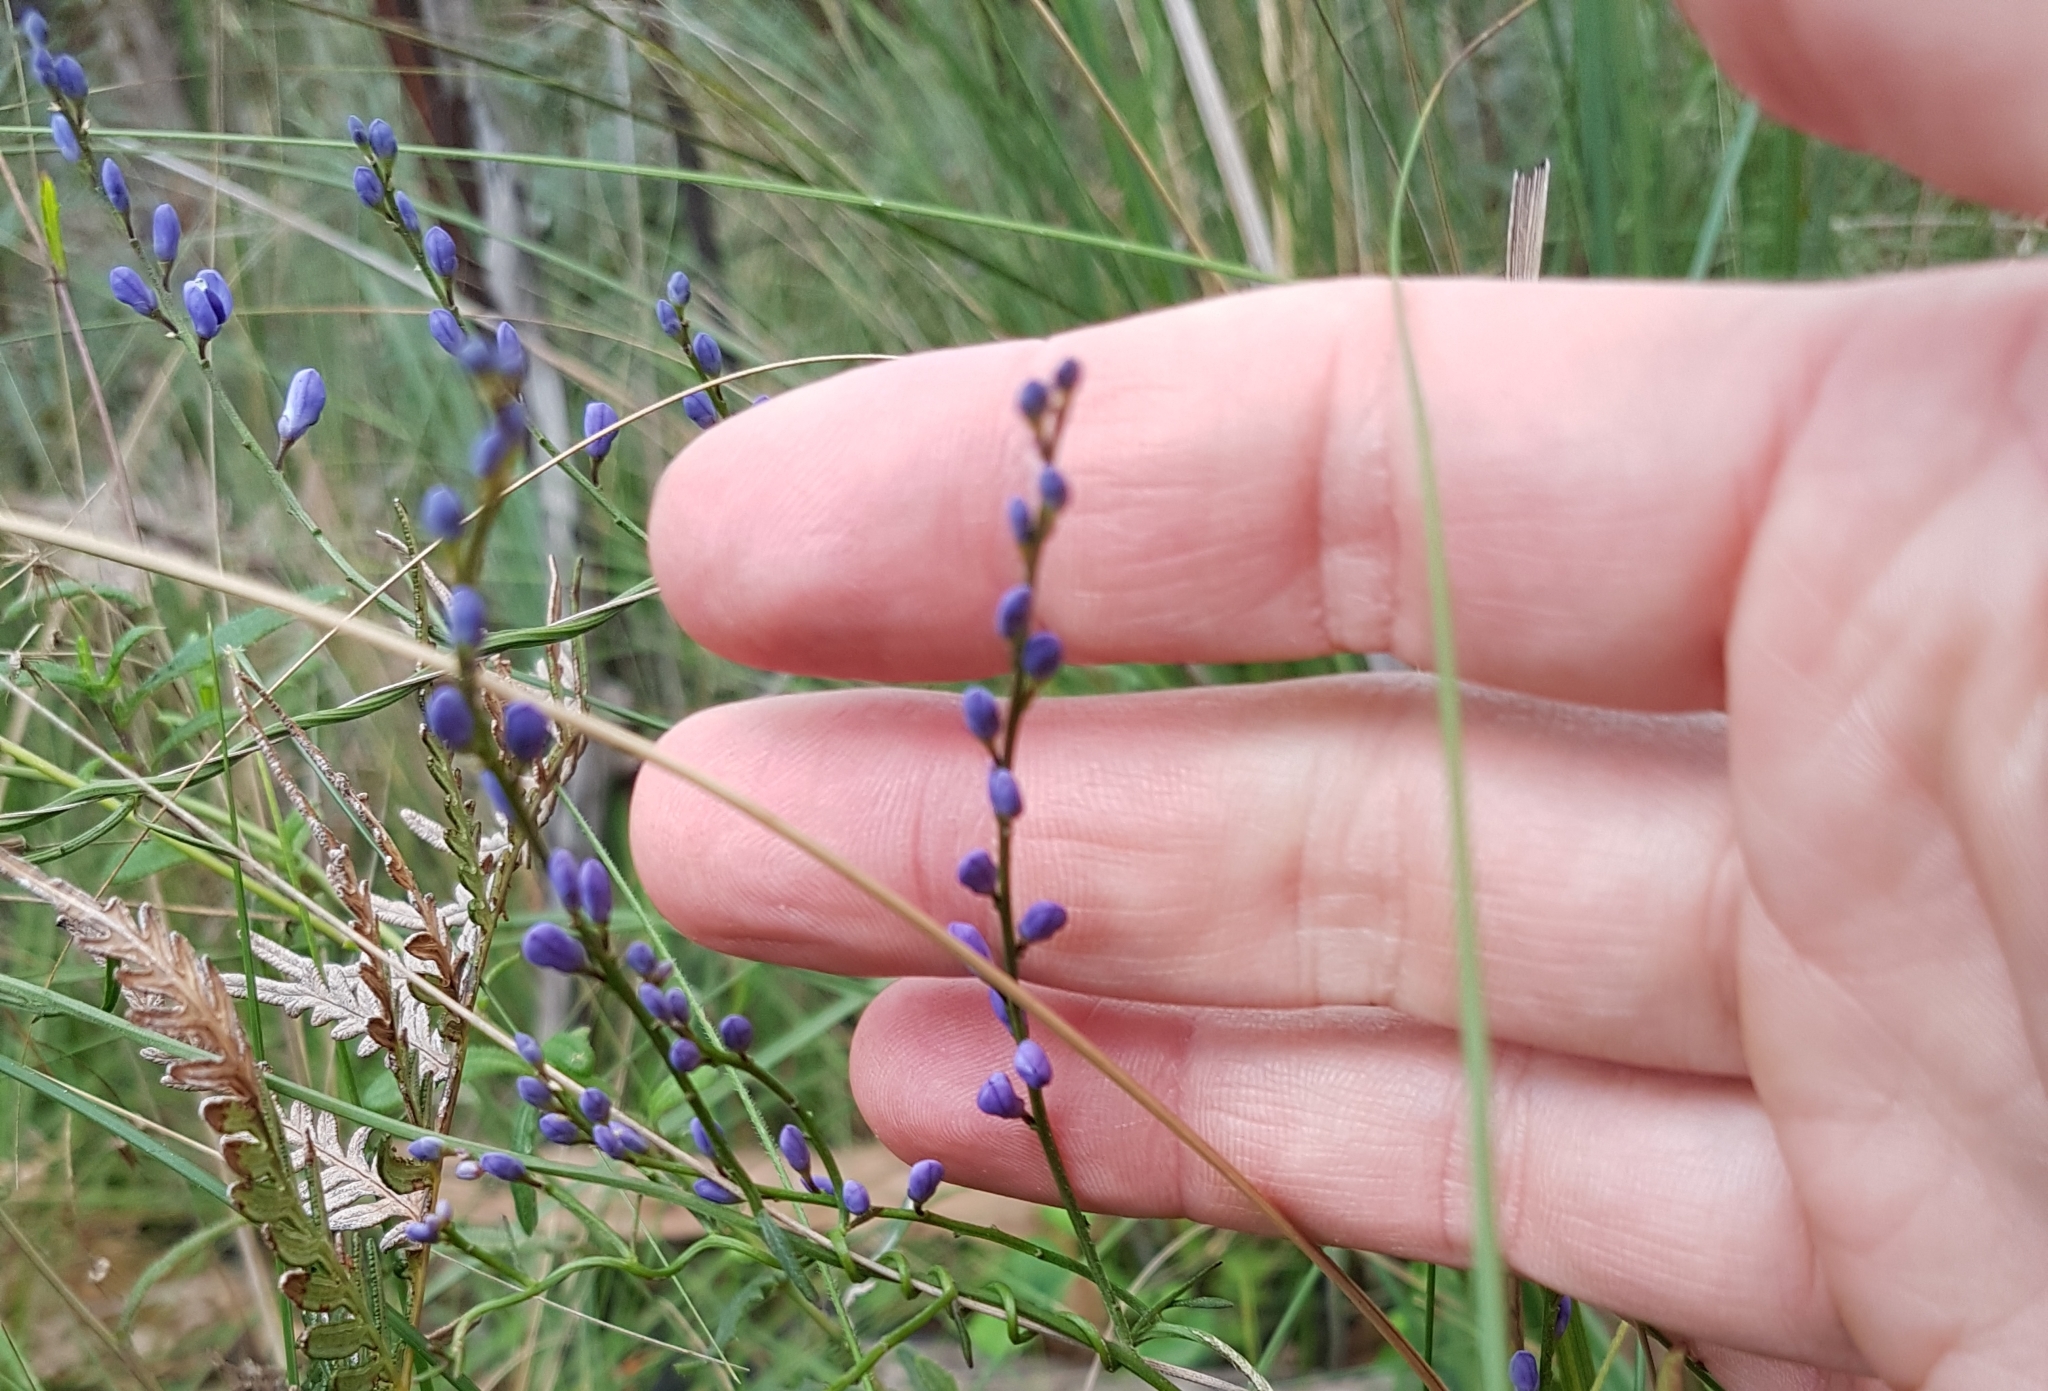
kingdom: Plantae
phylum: Tracheophyta
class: Magnoliopsida
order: Fabales
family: Polygalaceae
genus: Comesperma
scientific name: Comesperma volubile
